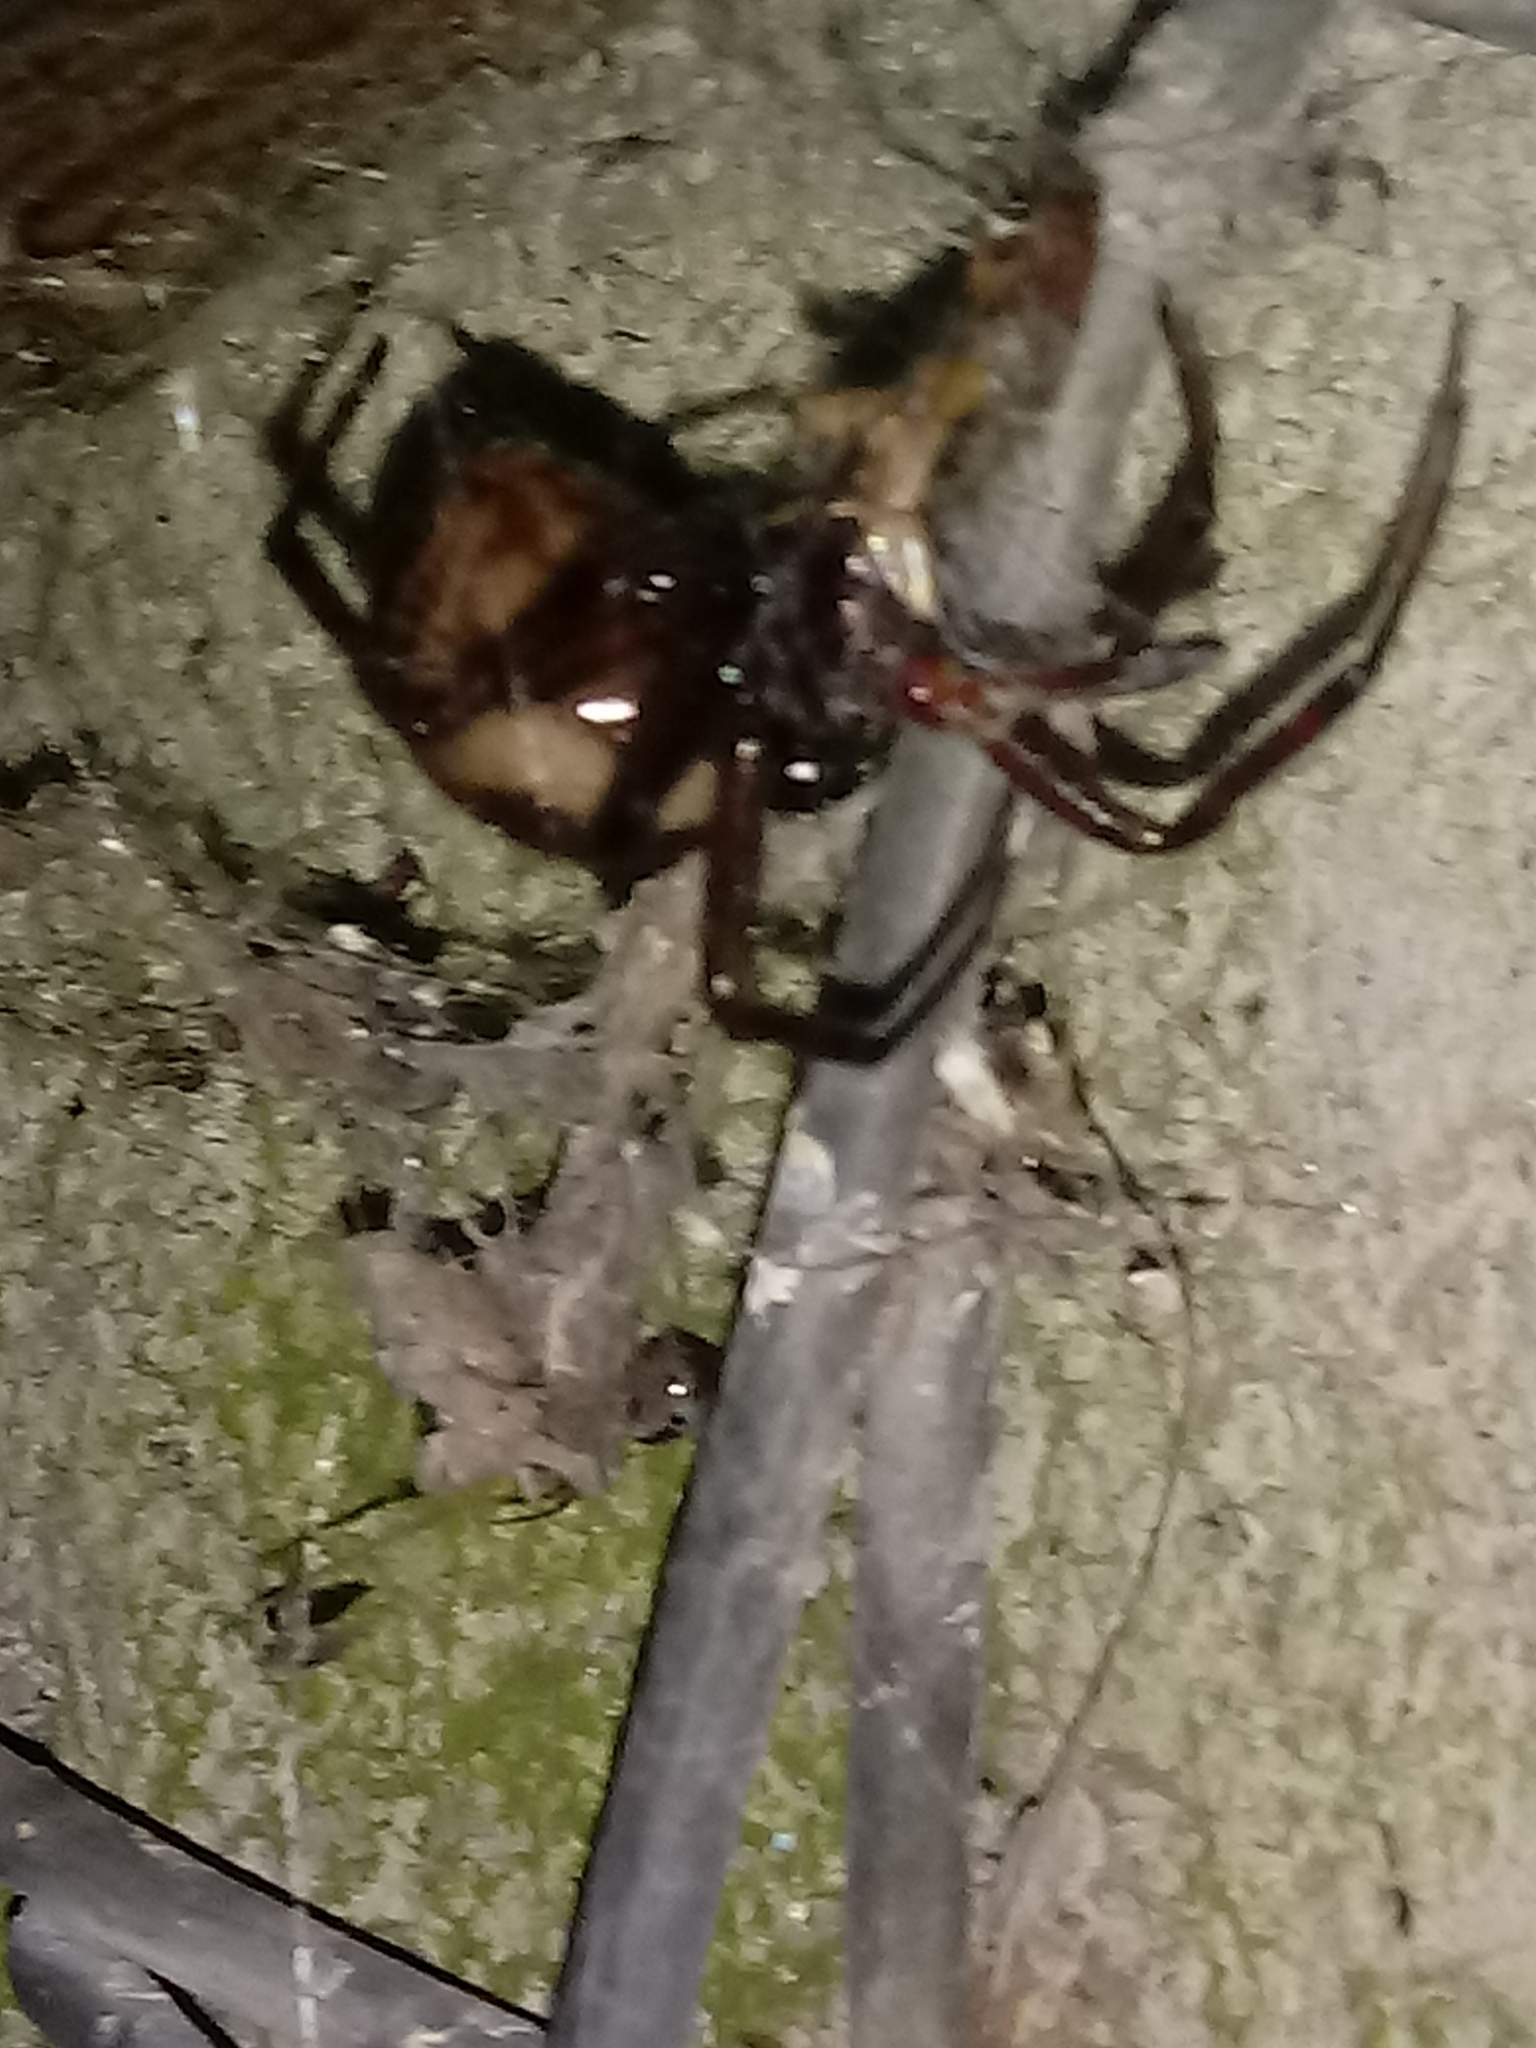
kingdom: Animalia
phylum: Arthropoda
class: Arachnida
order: Araneae
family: Theridiidae
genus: Steatoda
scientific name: Steatoda nobilis
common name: Cobweb weaver
